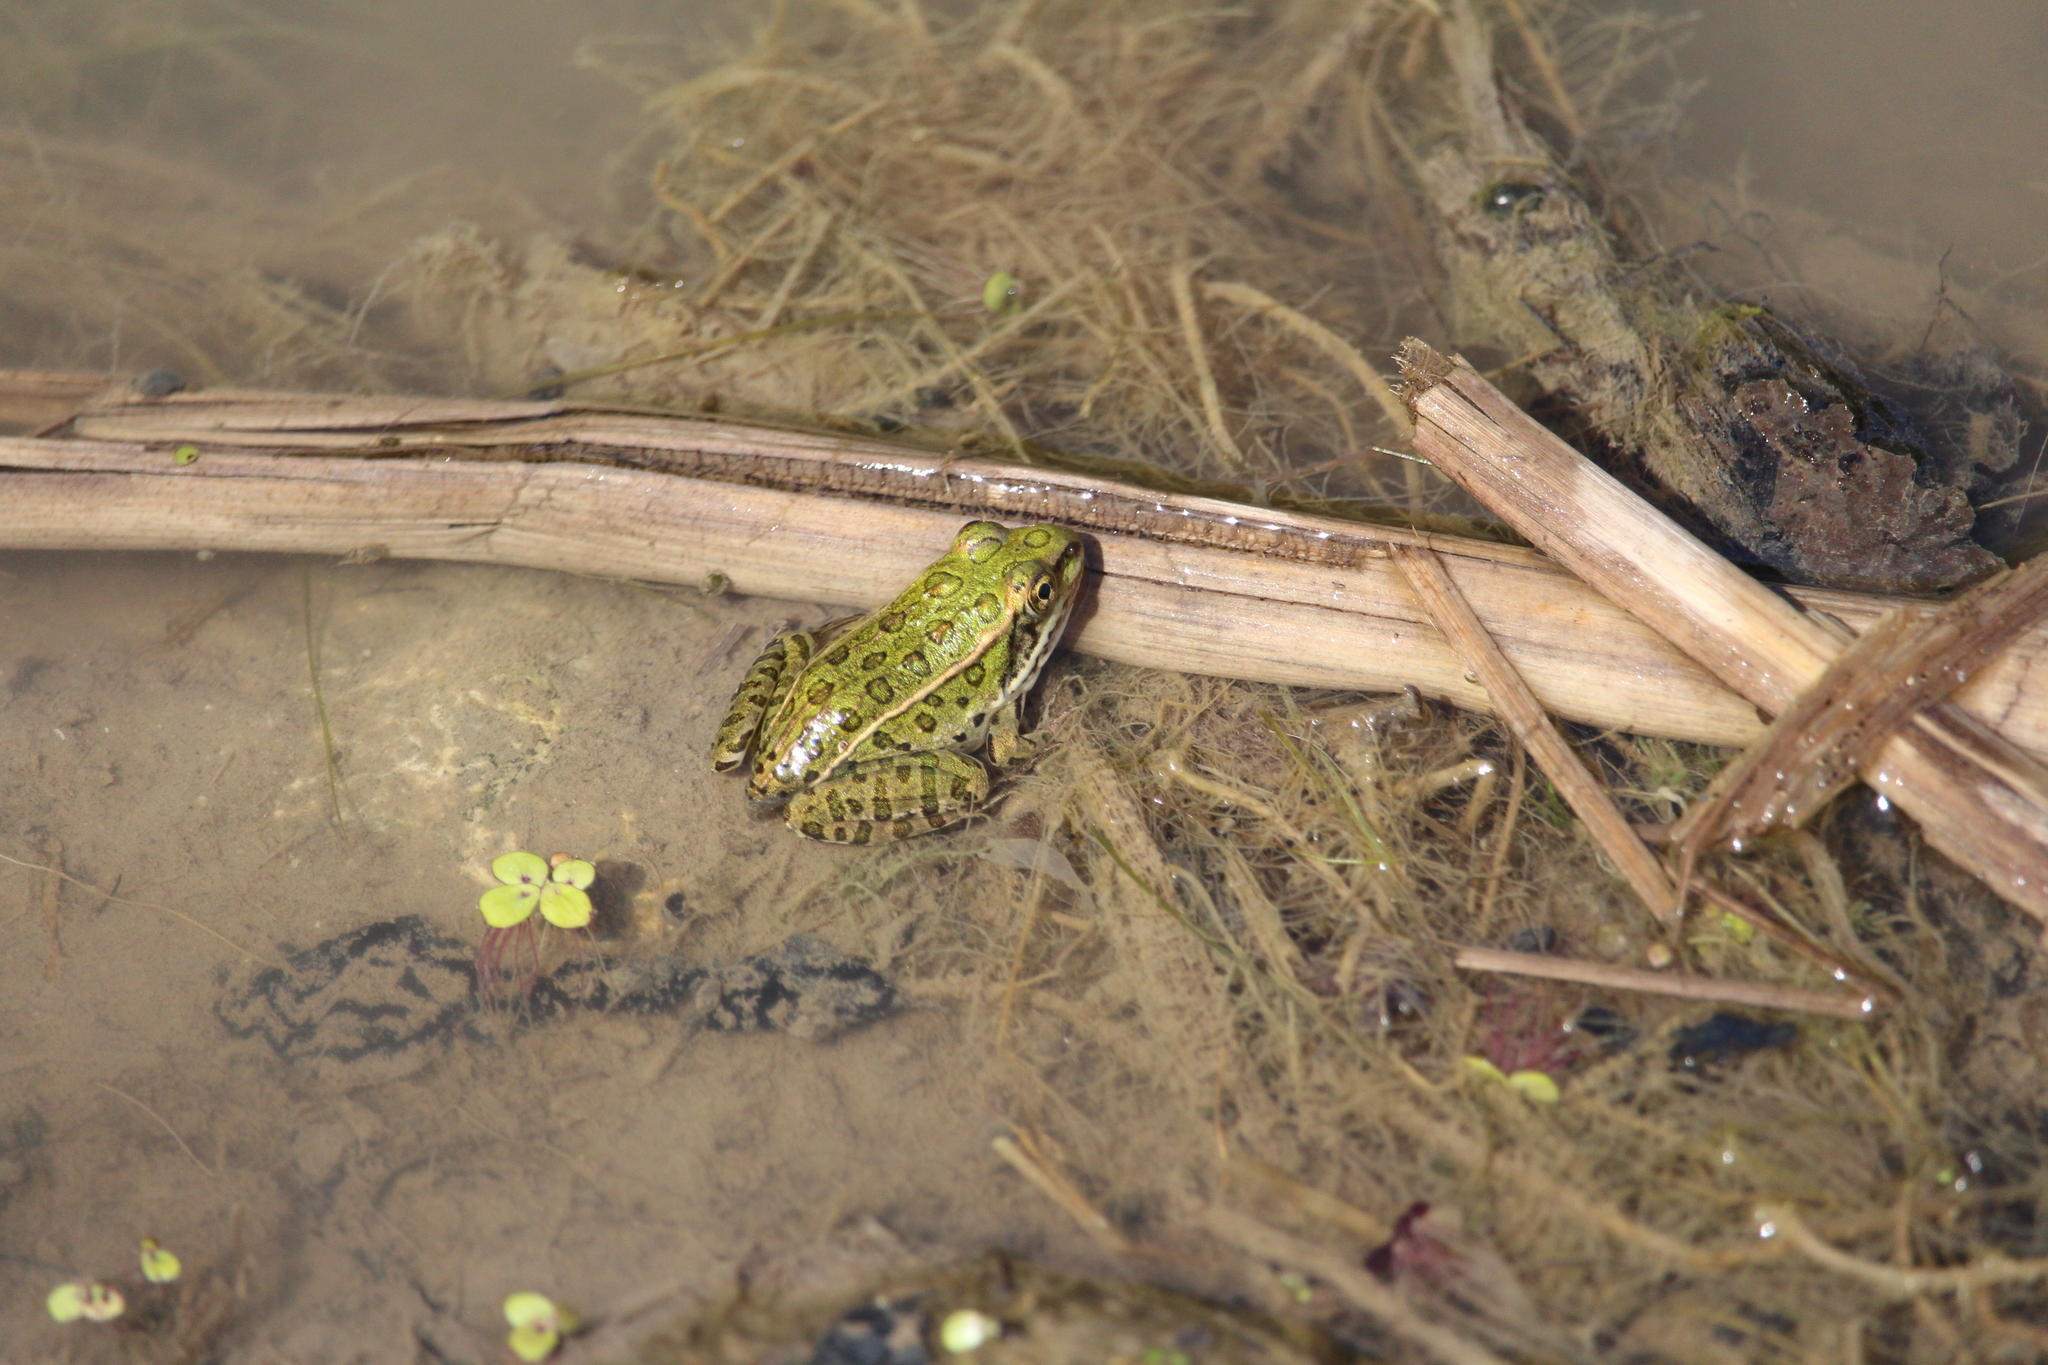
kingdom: Animalia
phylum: Chordata
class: Amphibia
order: Anura
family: Ranidae
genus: Lithobates
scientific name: Lithobates pipiens
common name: Northern leopard frog
